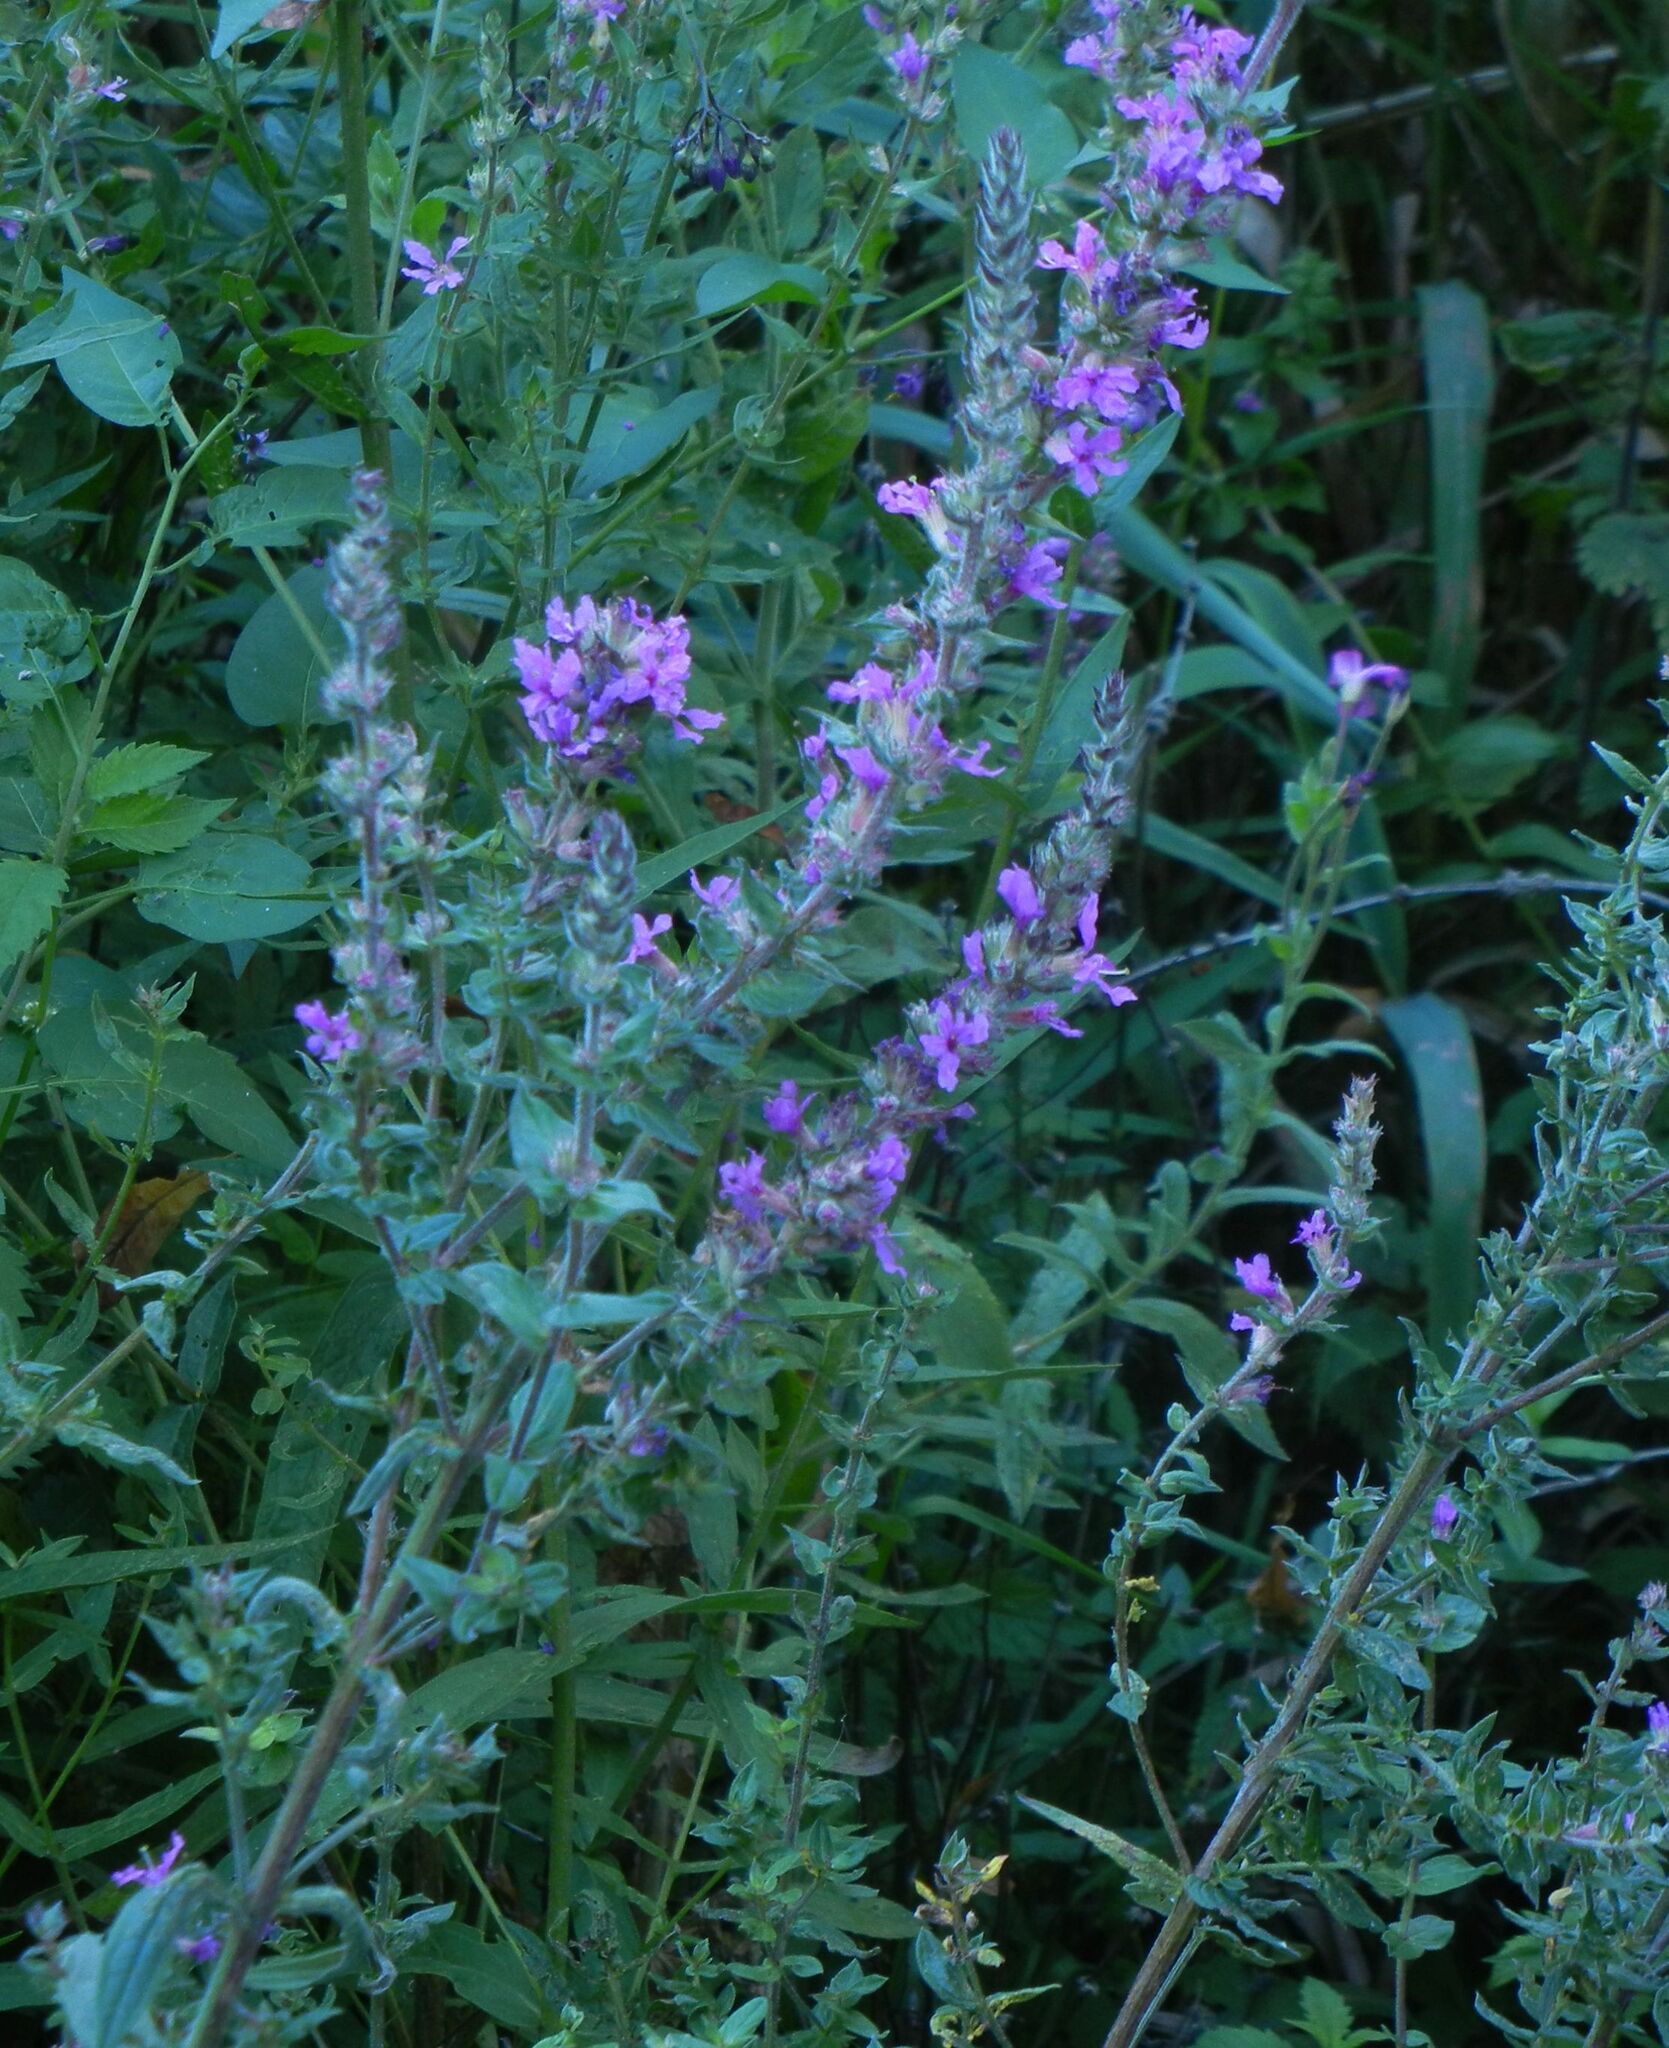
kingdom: Plantae
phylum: Tracheophyta
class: Magnoliopsida
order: Myrtales
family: Lythraceae
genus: Lythrum
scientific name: Lythrum salicaria
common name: Purple loosestrife
